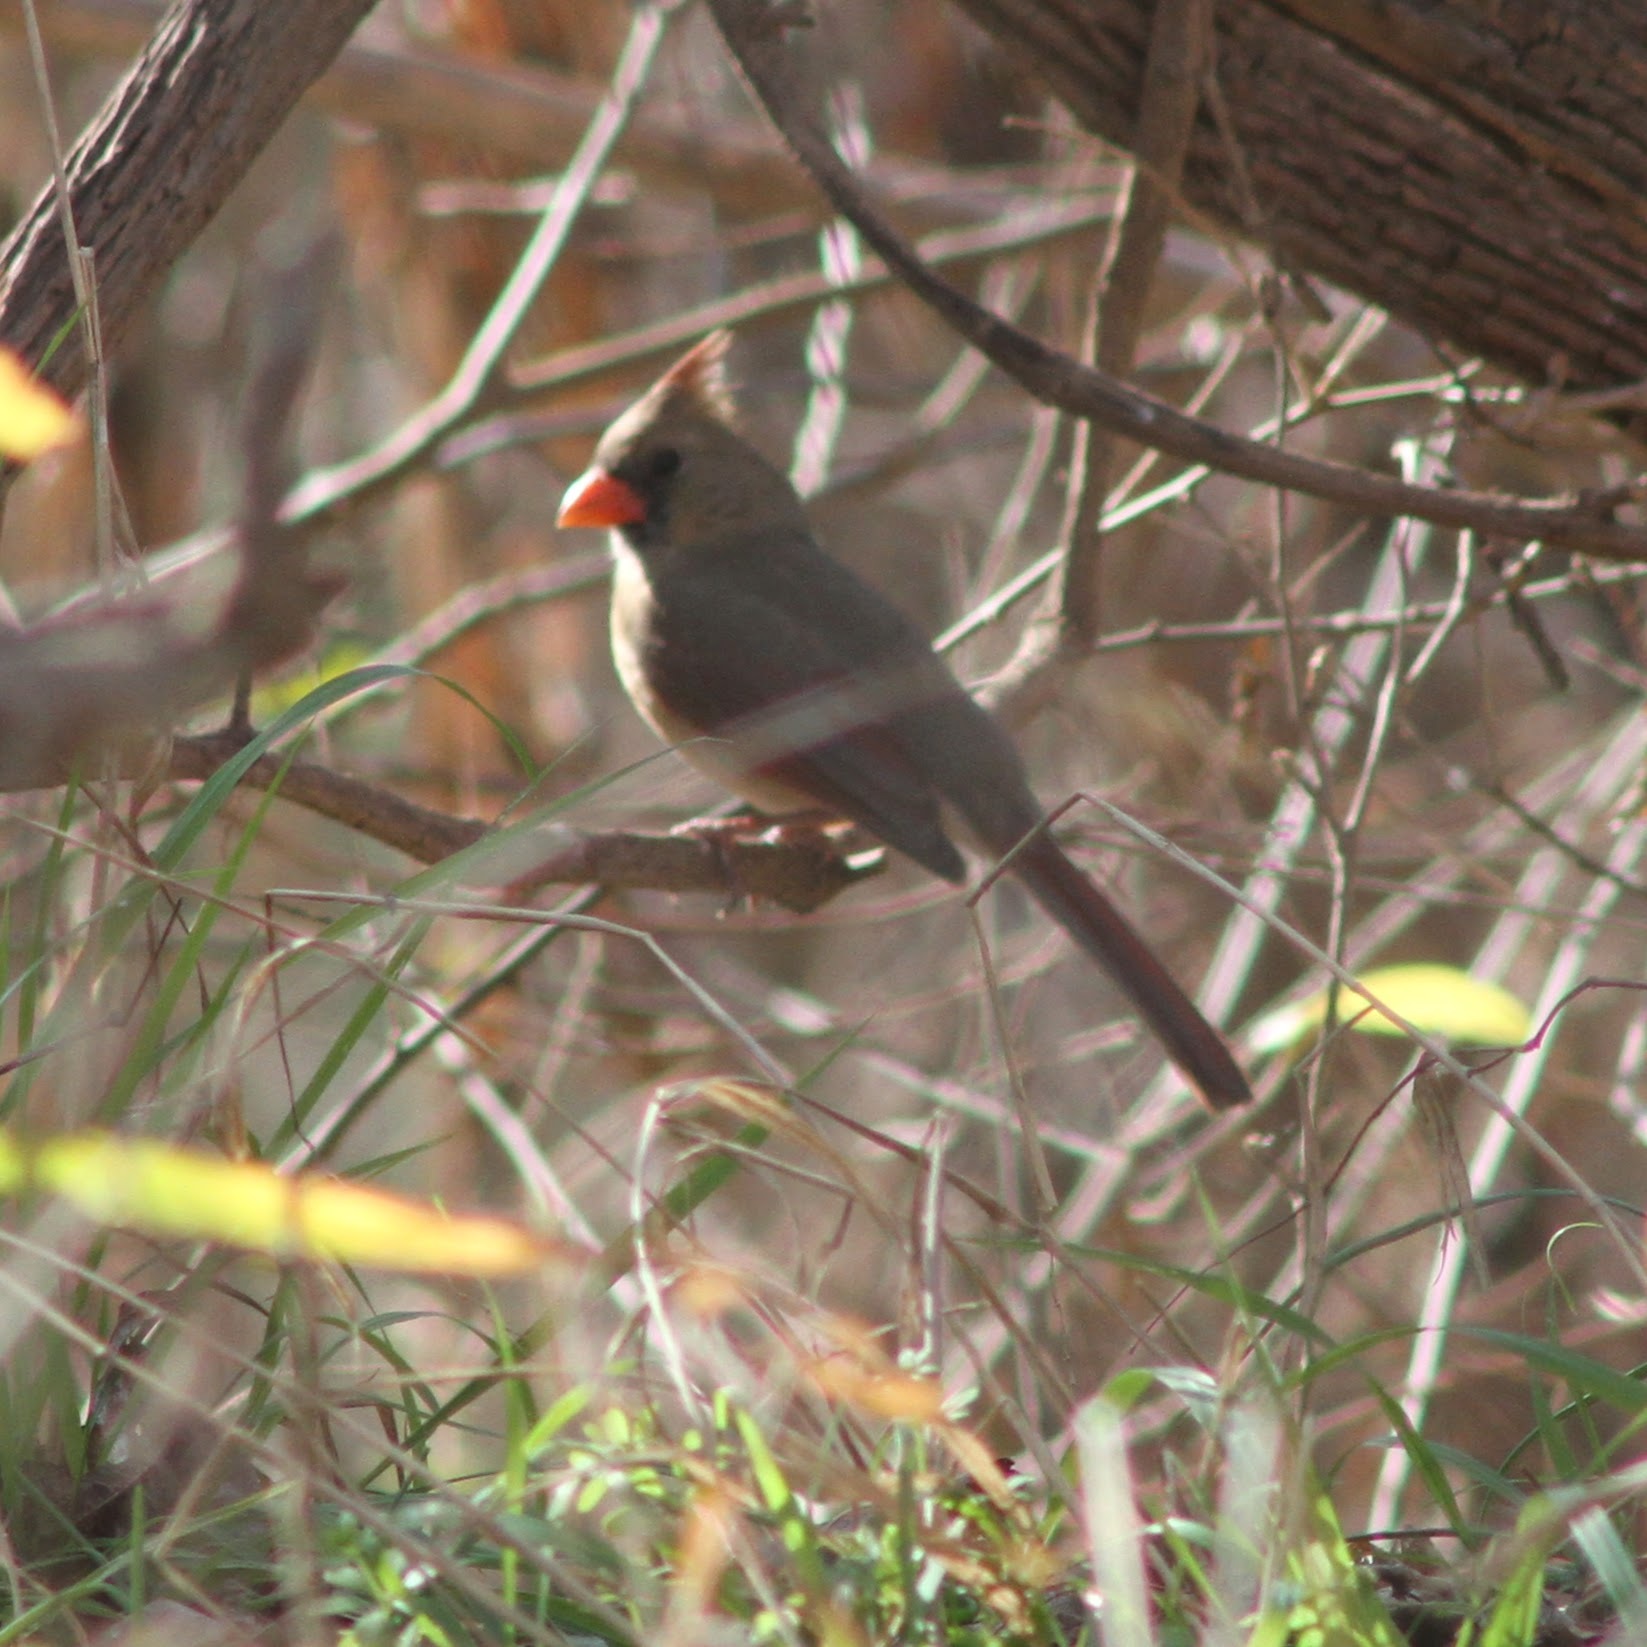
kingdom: Animalia
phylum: Chordata
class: Aves
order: Passeriformes
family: Cardinalidae
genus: Cardinalis
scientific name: Cardinalis cardinalis
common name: Northern cardinal
